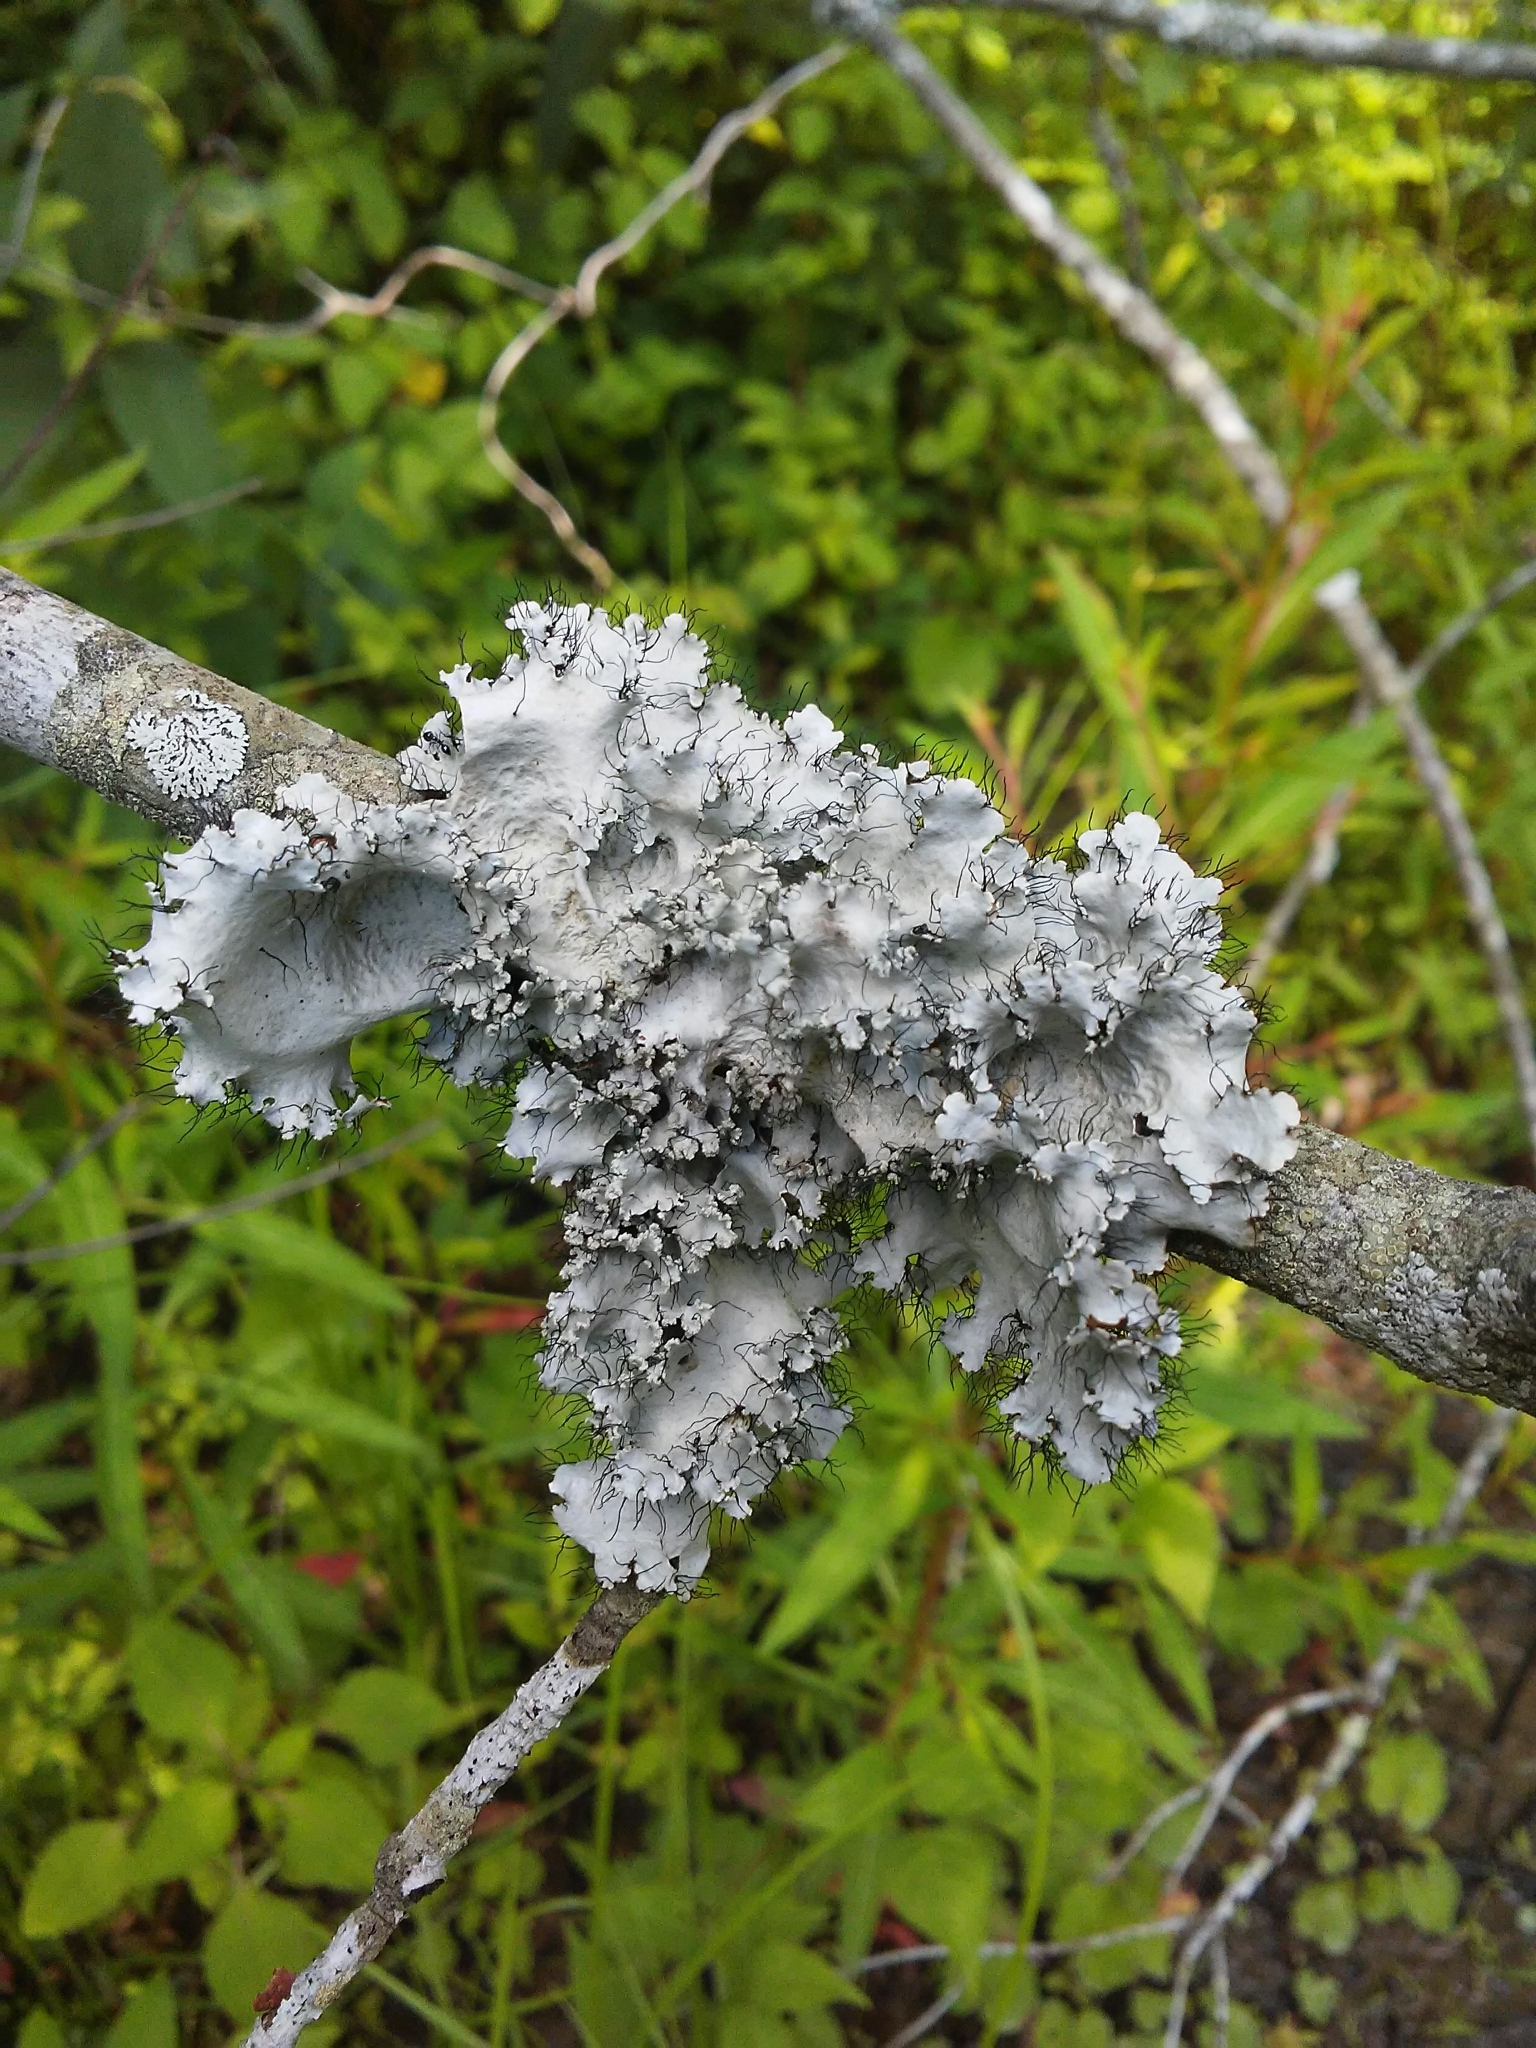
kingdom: Fungi
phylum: Ascomycota
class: Lecanoromycetes
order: Lecanorales
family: Parmeliaceae
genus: Parmotrema
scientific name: Parmotrema hypotropum
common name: Powdered ruffle lichen
